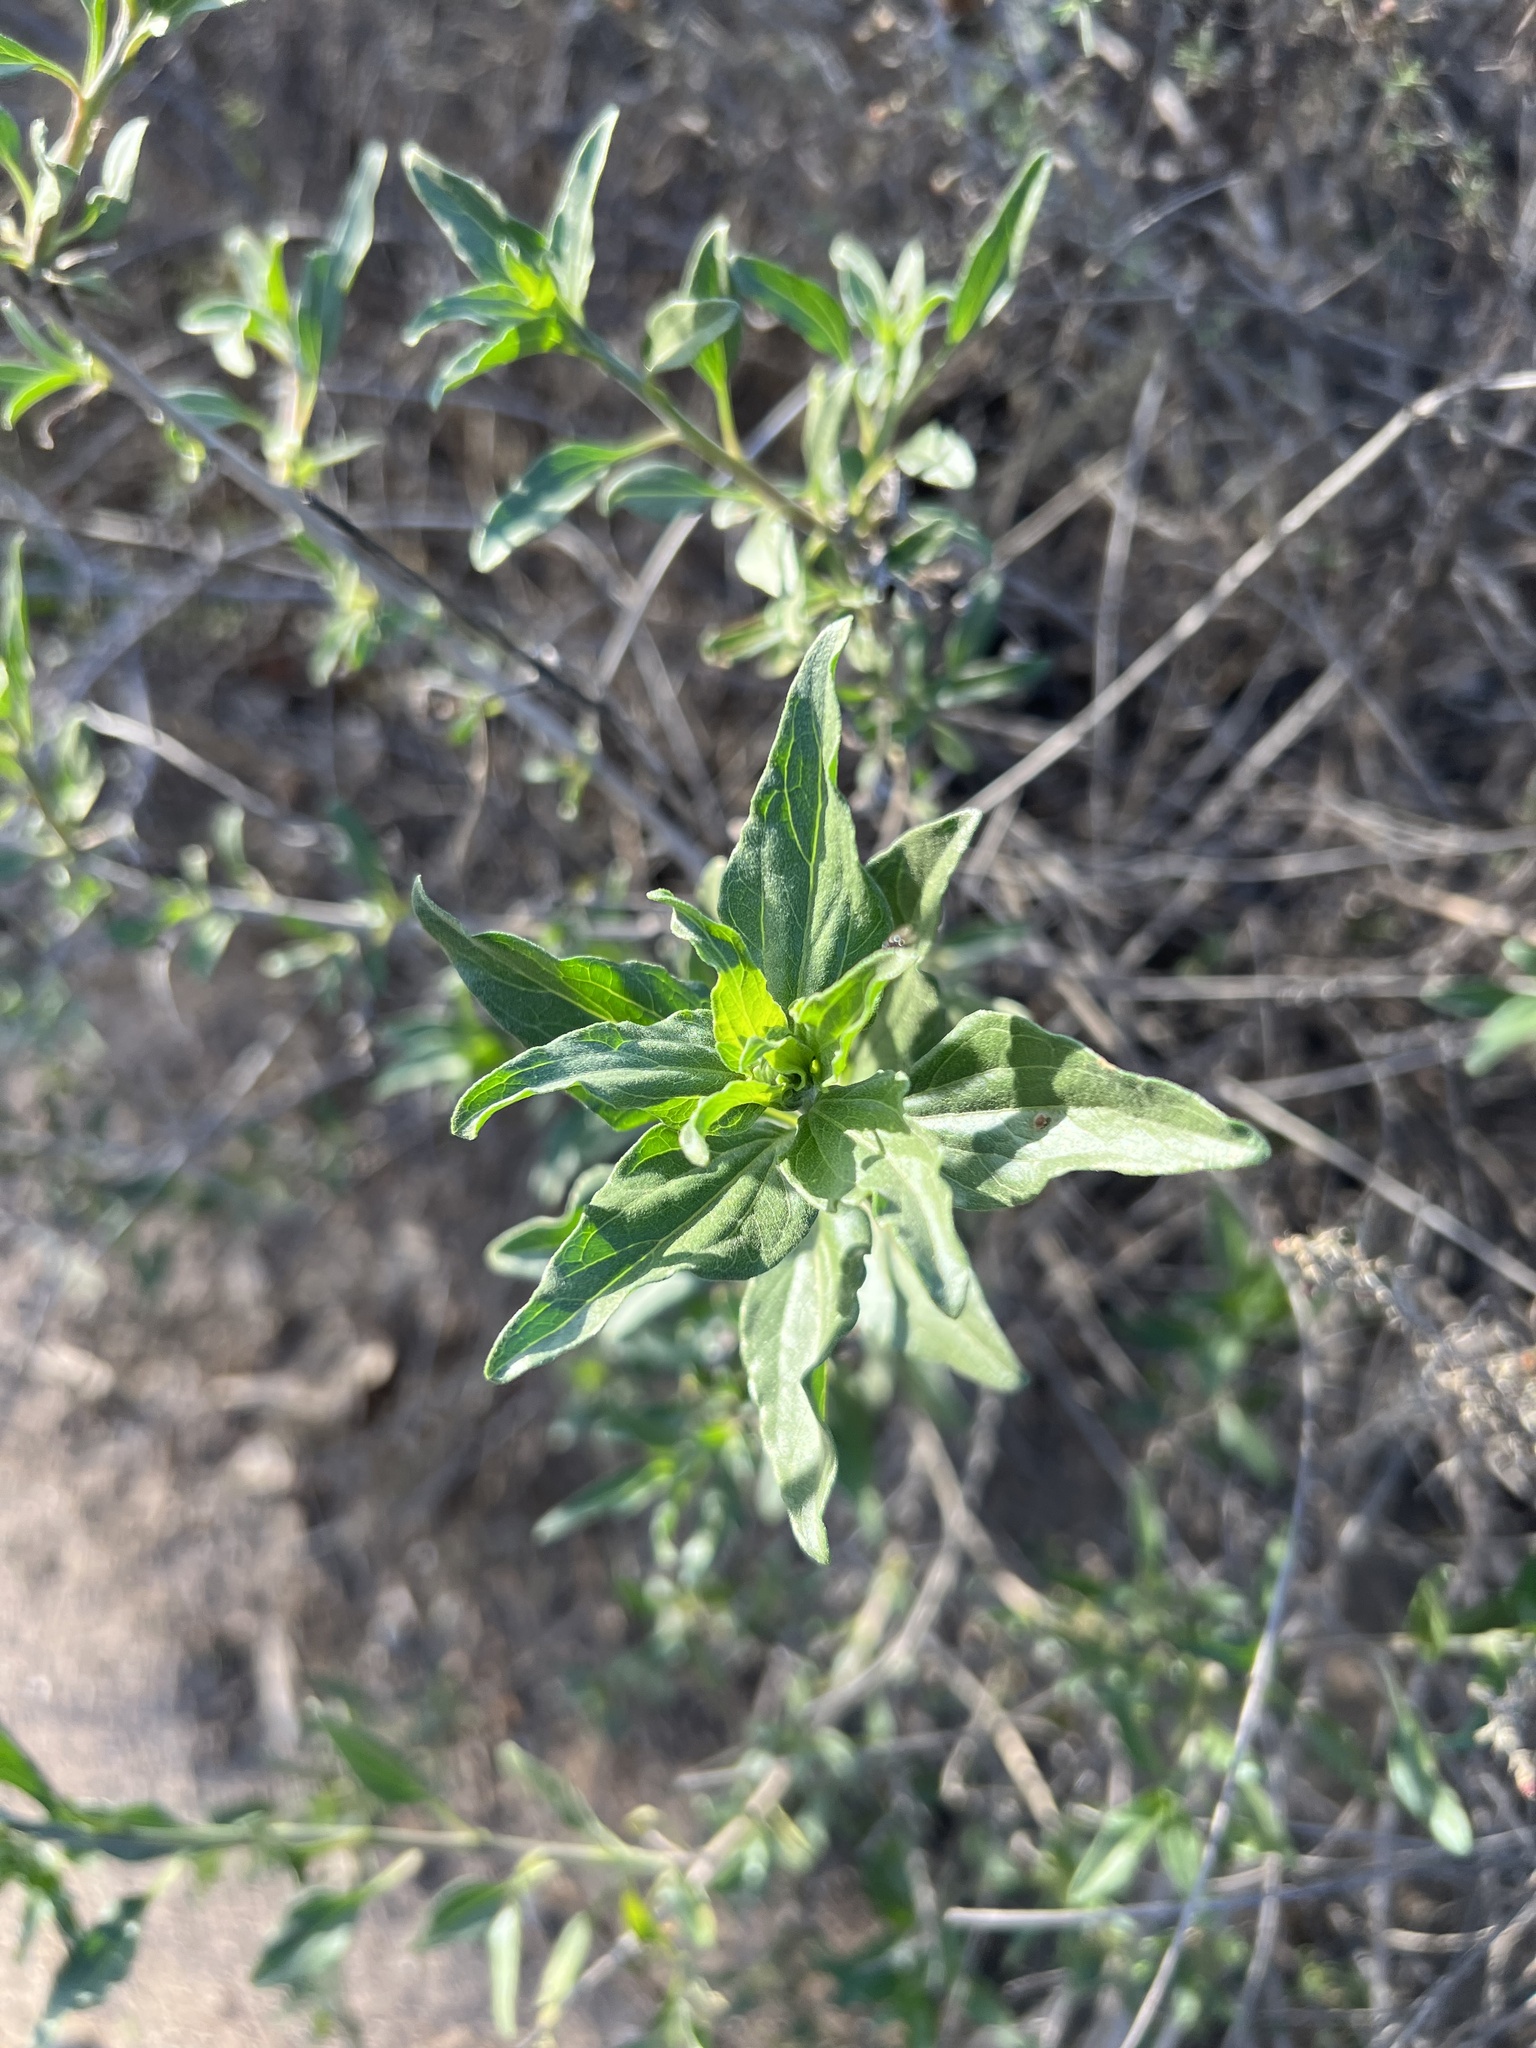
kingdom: Plantae
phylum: Tracheophyta
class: Magnoliopsida
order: Asterales
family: Asteraceae
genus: Encelia
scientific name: Encelia californica
